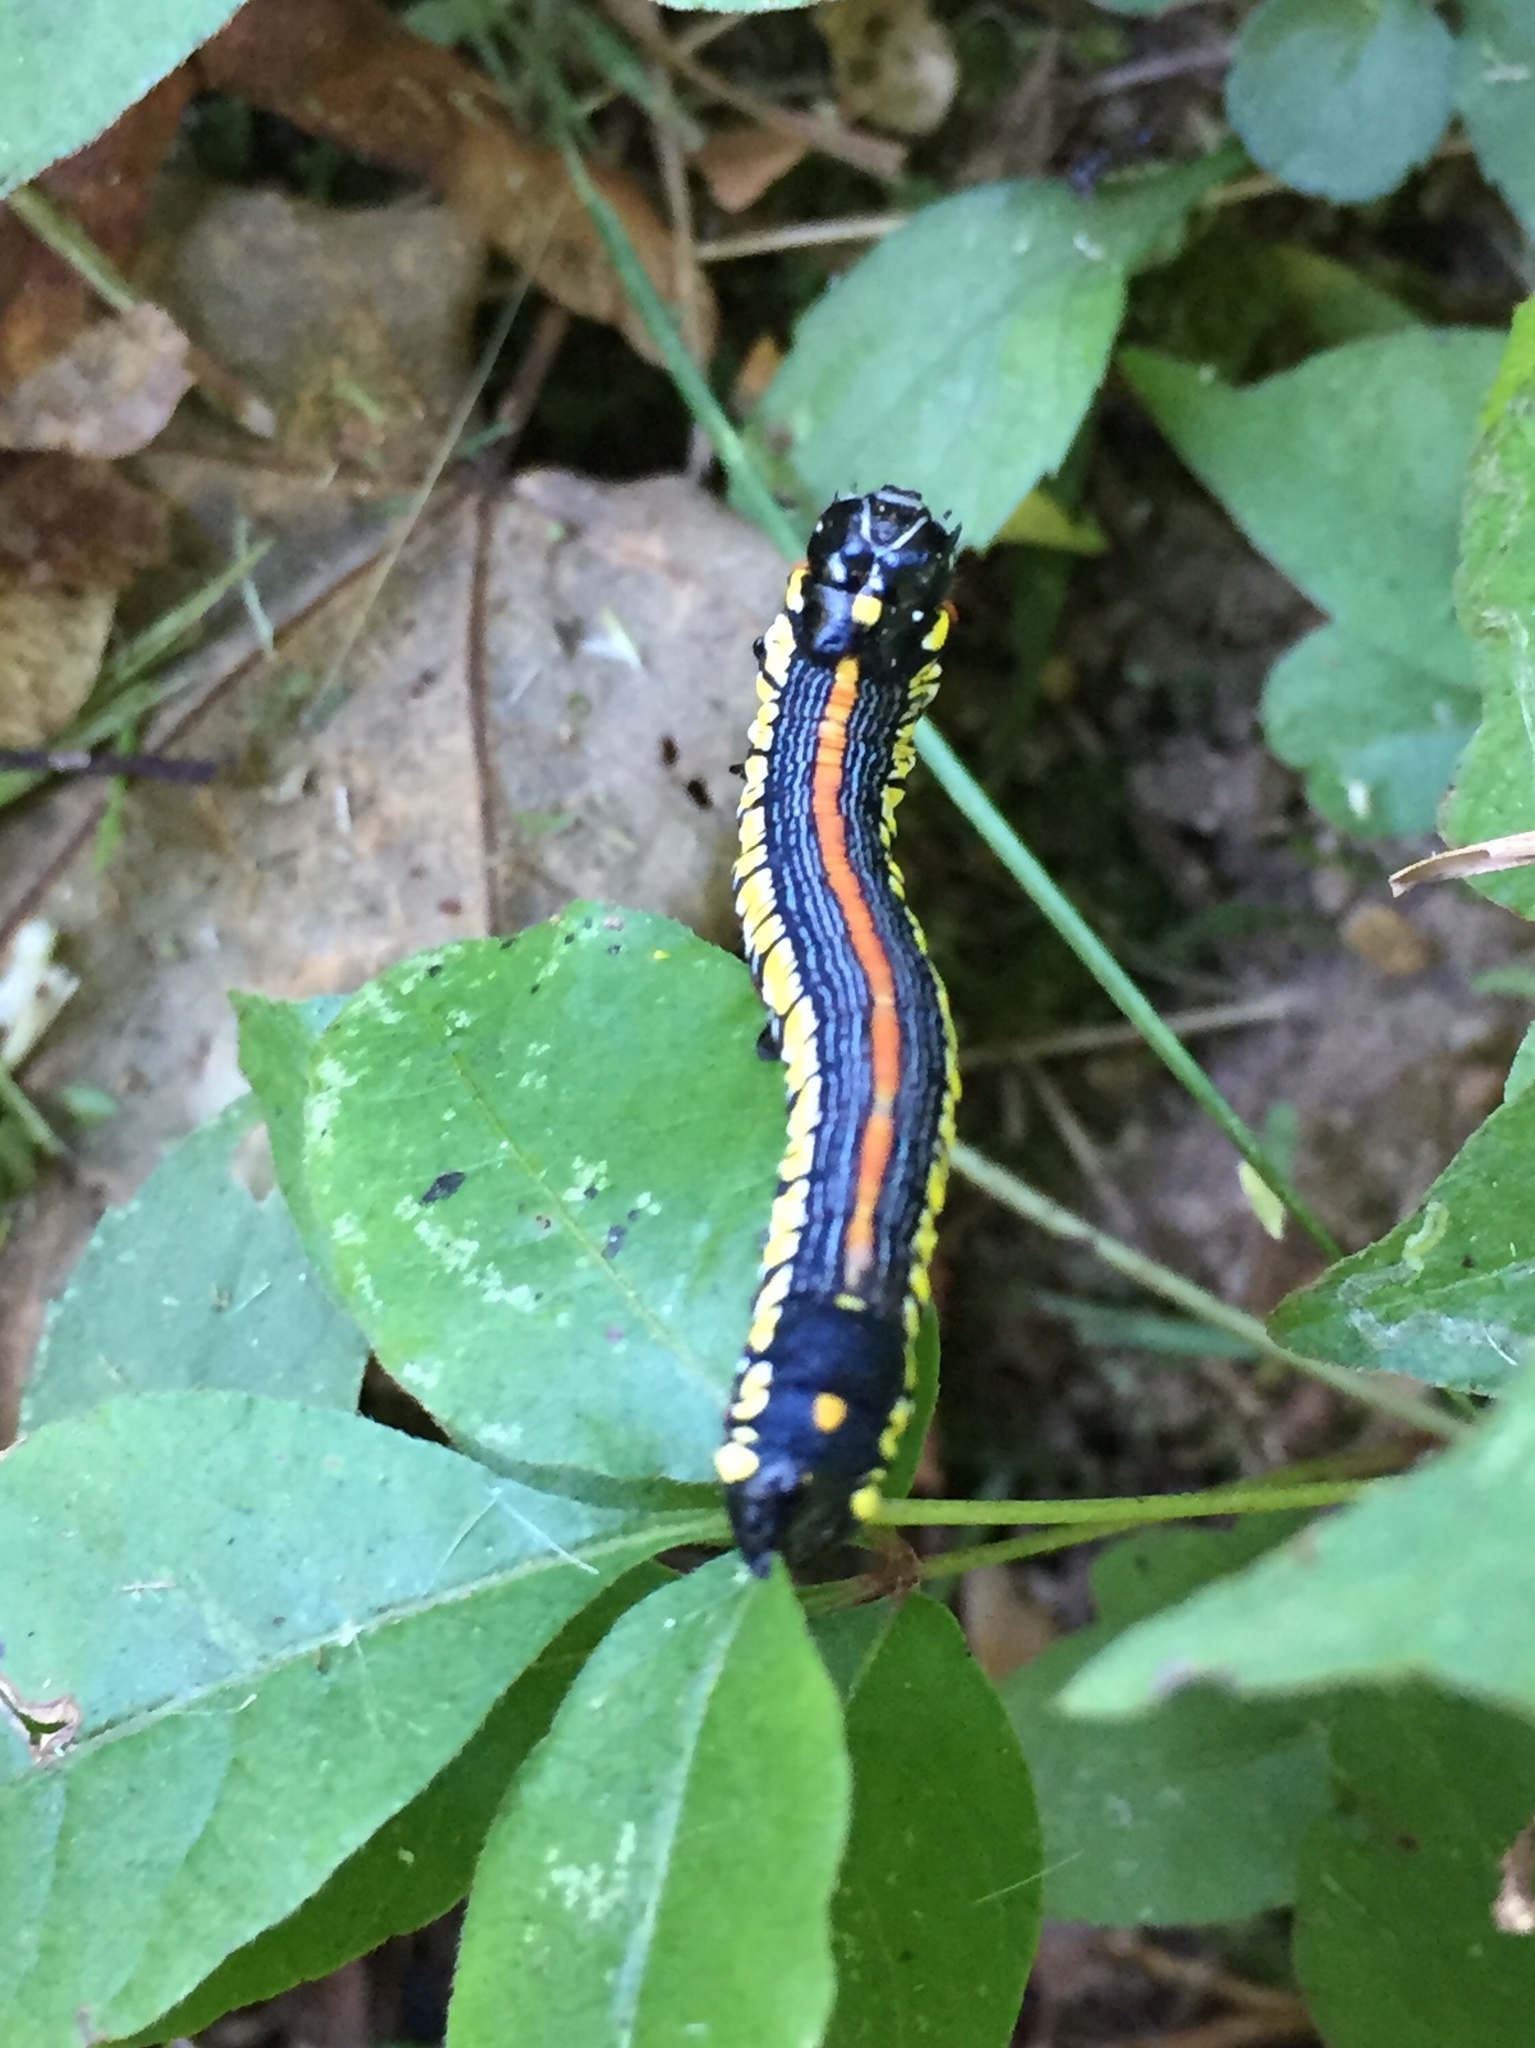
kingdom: Animalia
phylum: Arthropoda
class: Insecta
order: Lepidoptera
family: Noctuidae
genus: Cucullia
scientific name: Cucullia convexipennis
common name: Brown-hooded owlet
